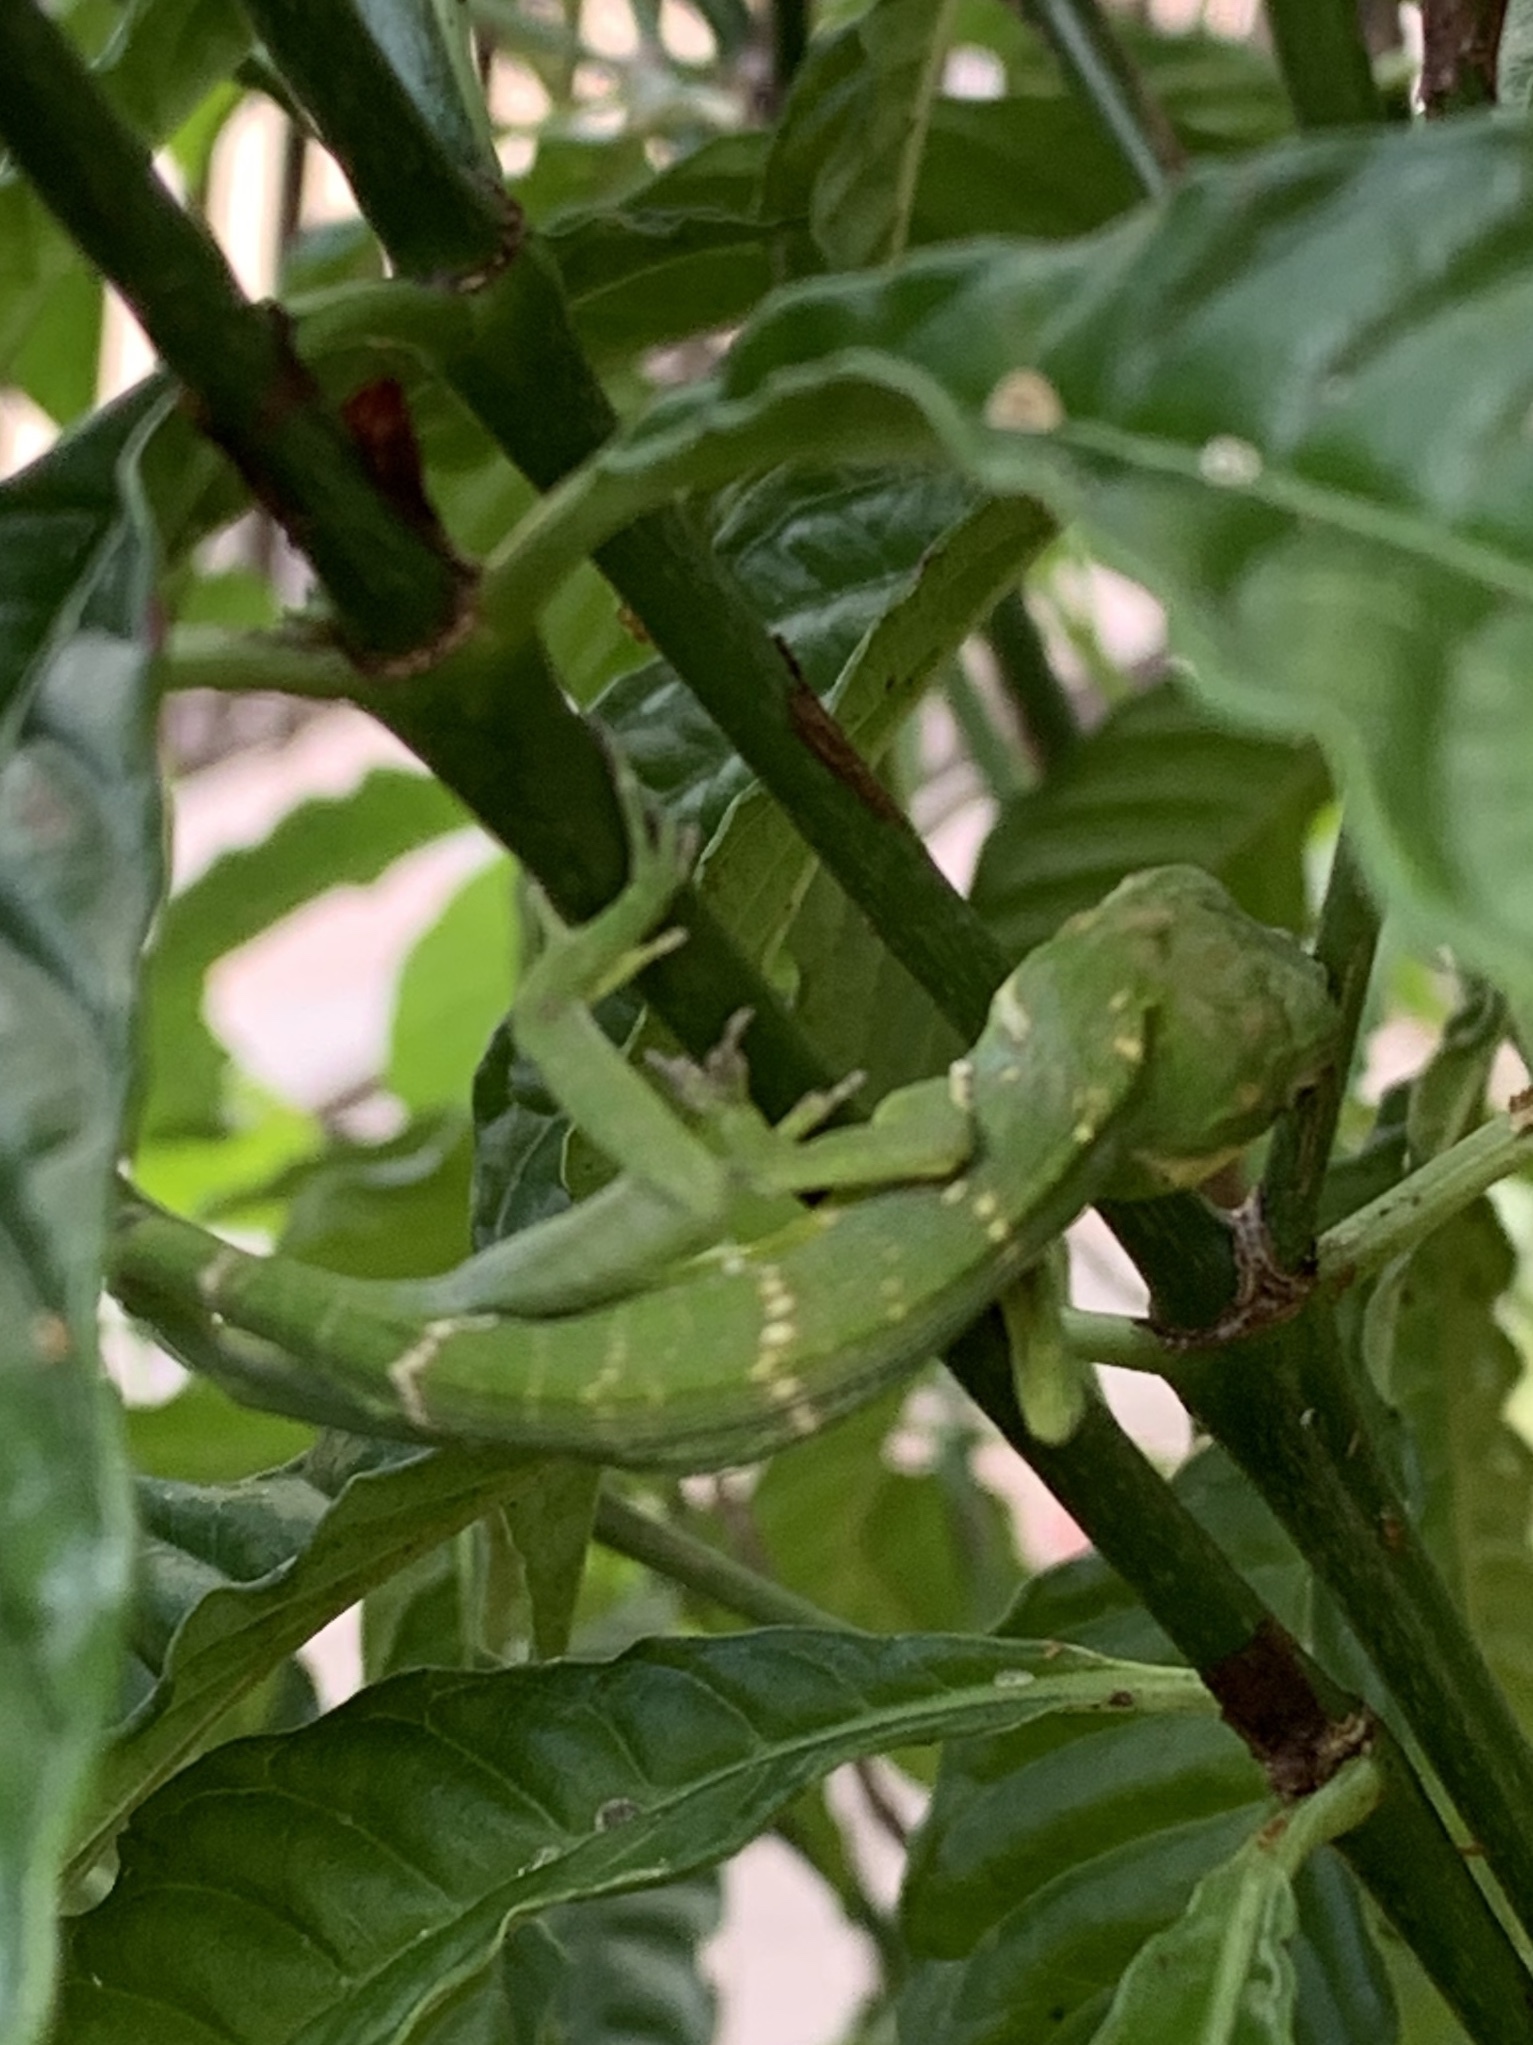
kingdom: Animalia
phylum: Chordata
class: Squamata
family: Dactyloidae
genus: Anolis
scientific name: Anolis equestris
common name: Knight anole
